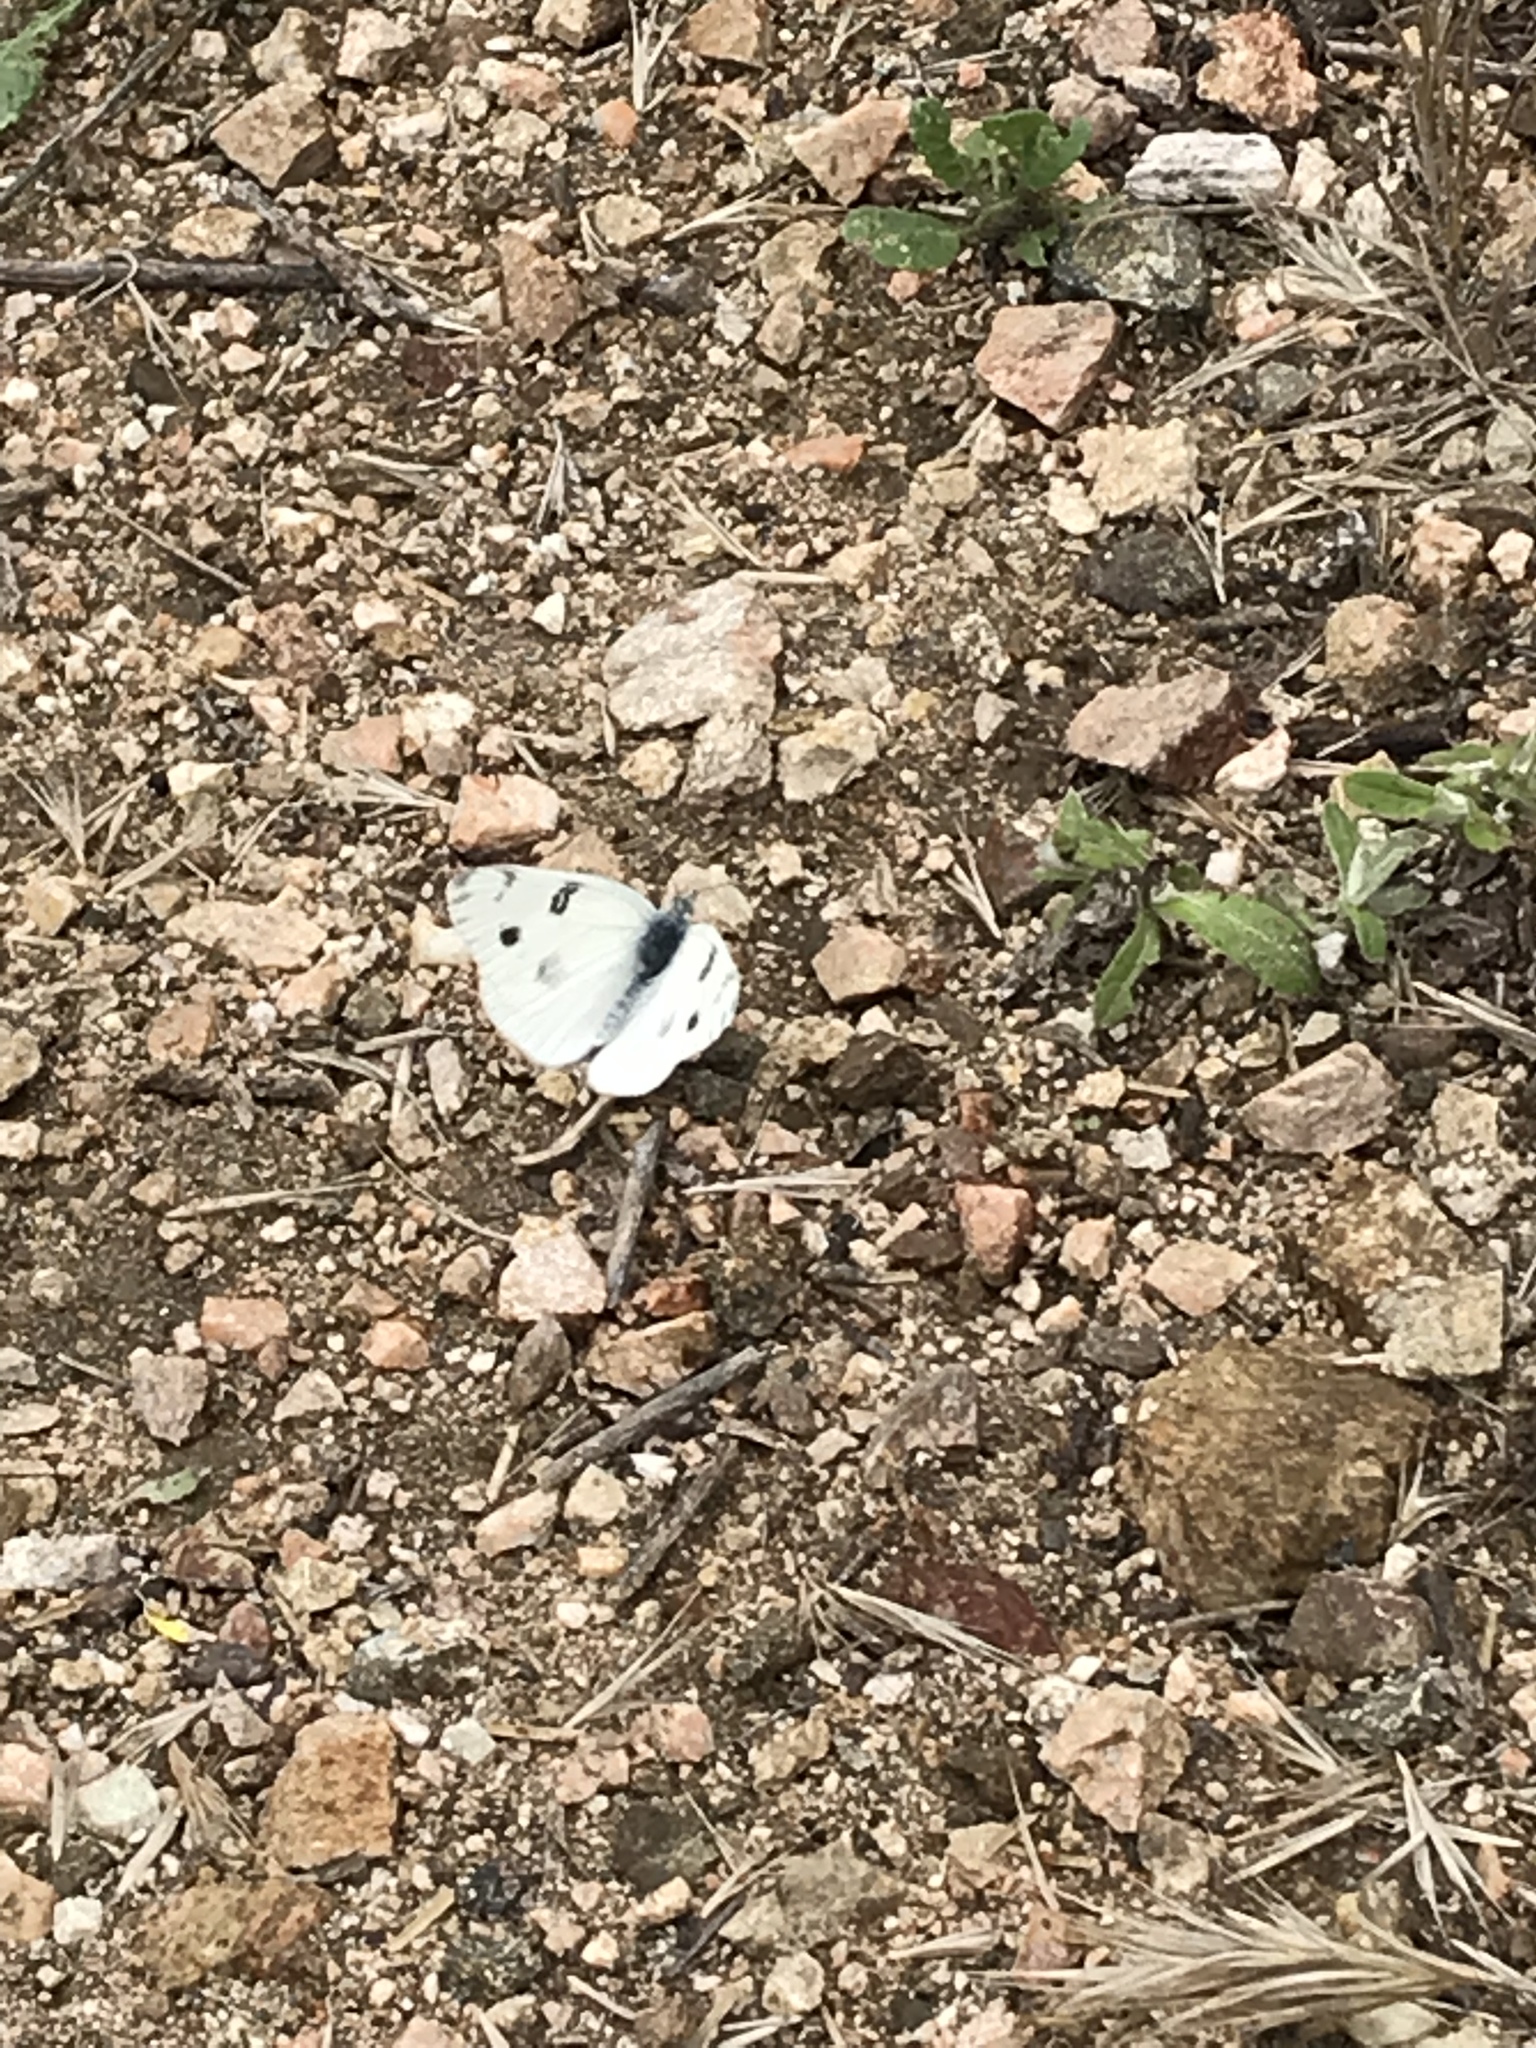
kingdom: Animalia
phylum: Arthropoda
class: Insecta
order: Lepidoptera
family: Pieridae
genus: Pontia
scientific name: Pontia protodice
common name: Checkered white
